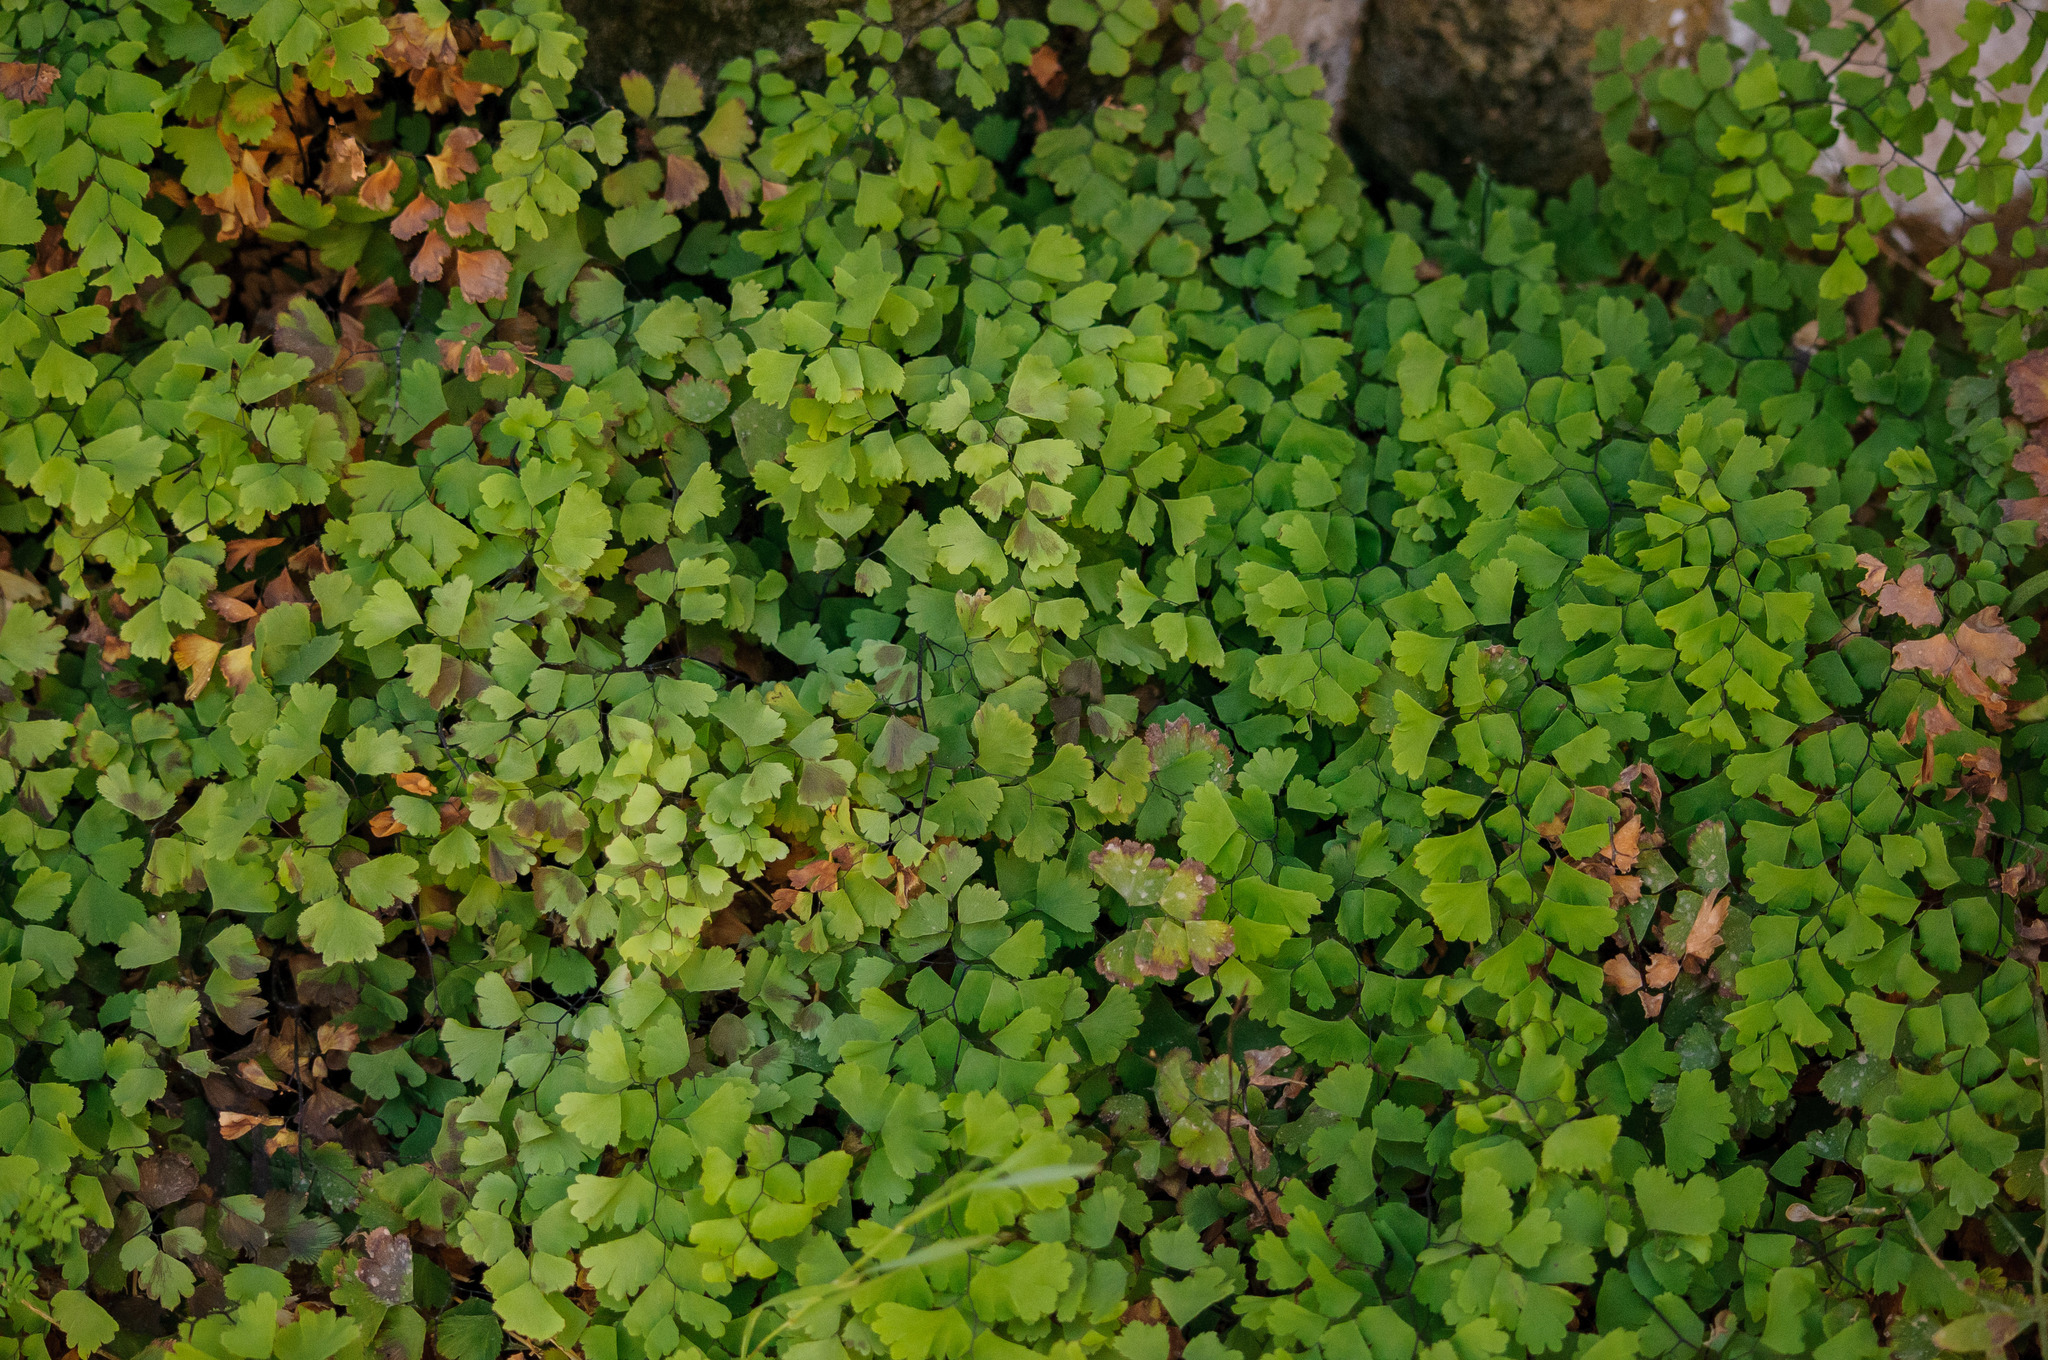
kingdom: Plantae
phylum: Tracheophyta
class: Polypodiopsida
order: Polypodiales
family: Pteridaceae
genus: Adiantum
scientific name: Adiantum capillus-veneris
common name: Maidenhair fern
